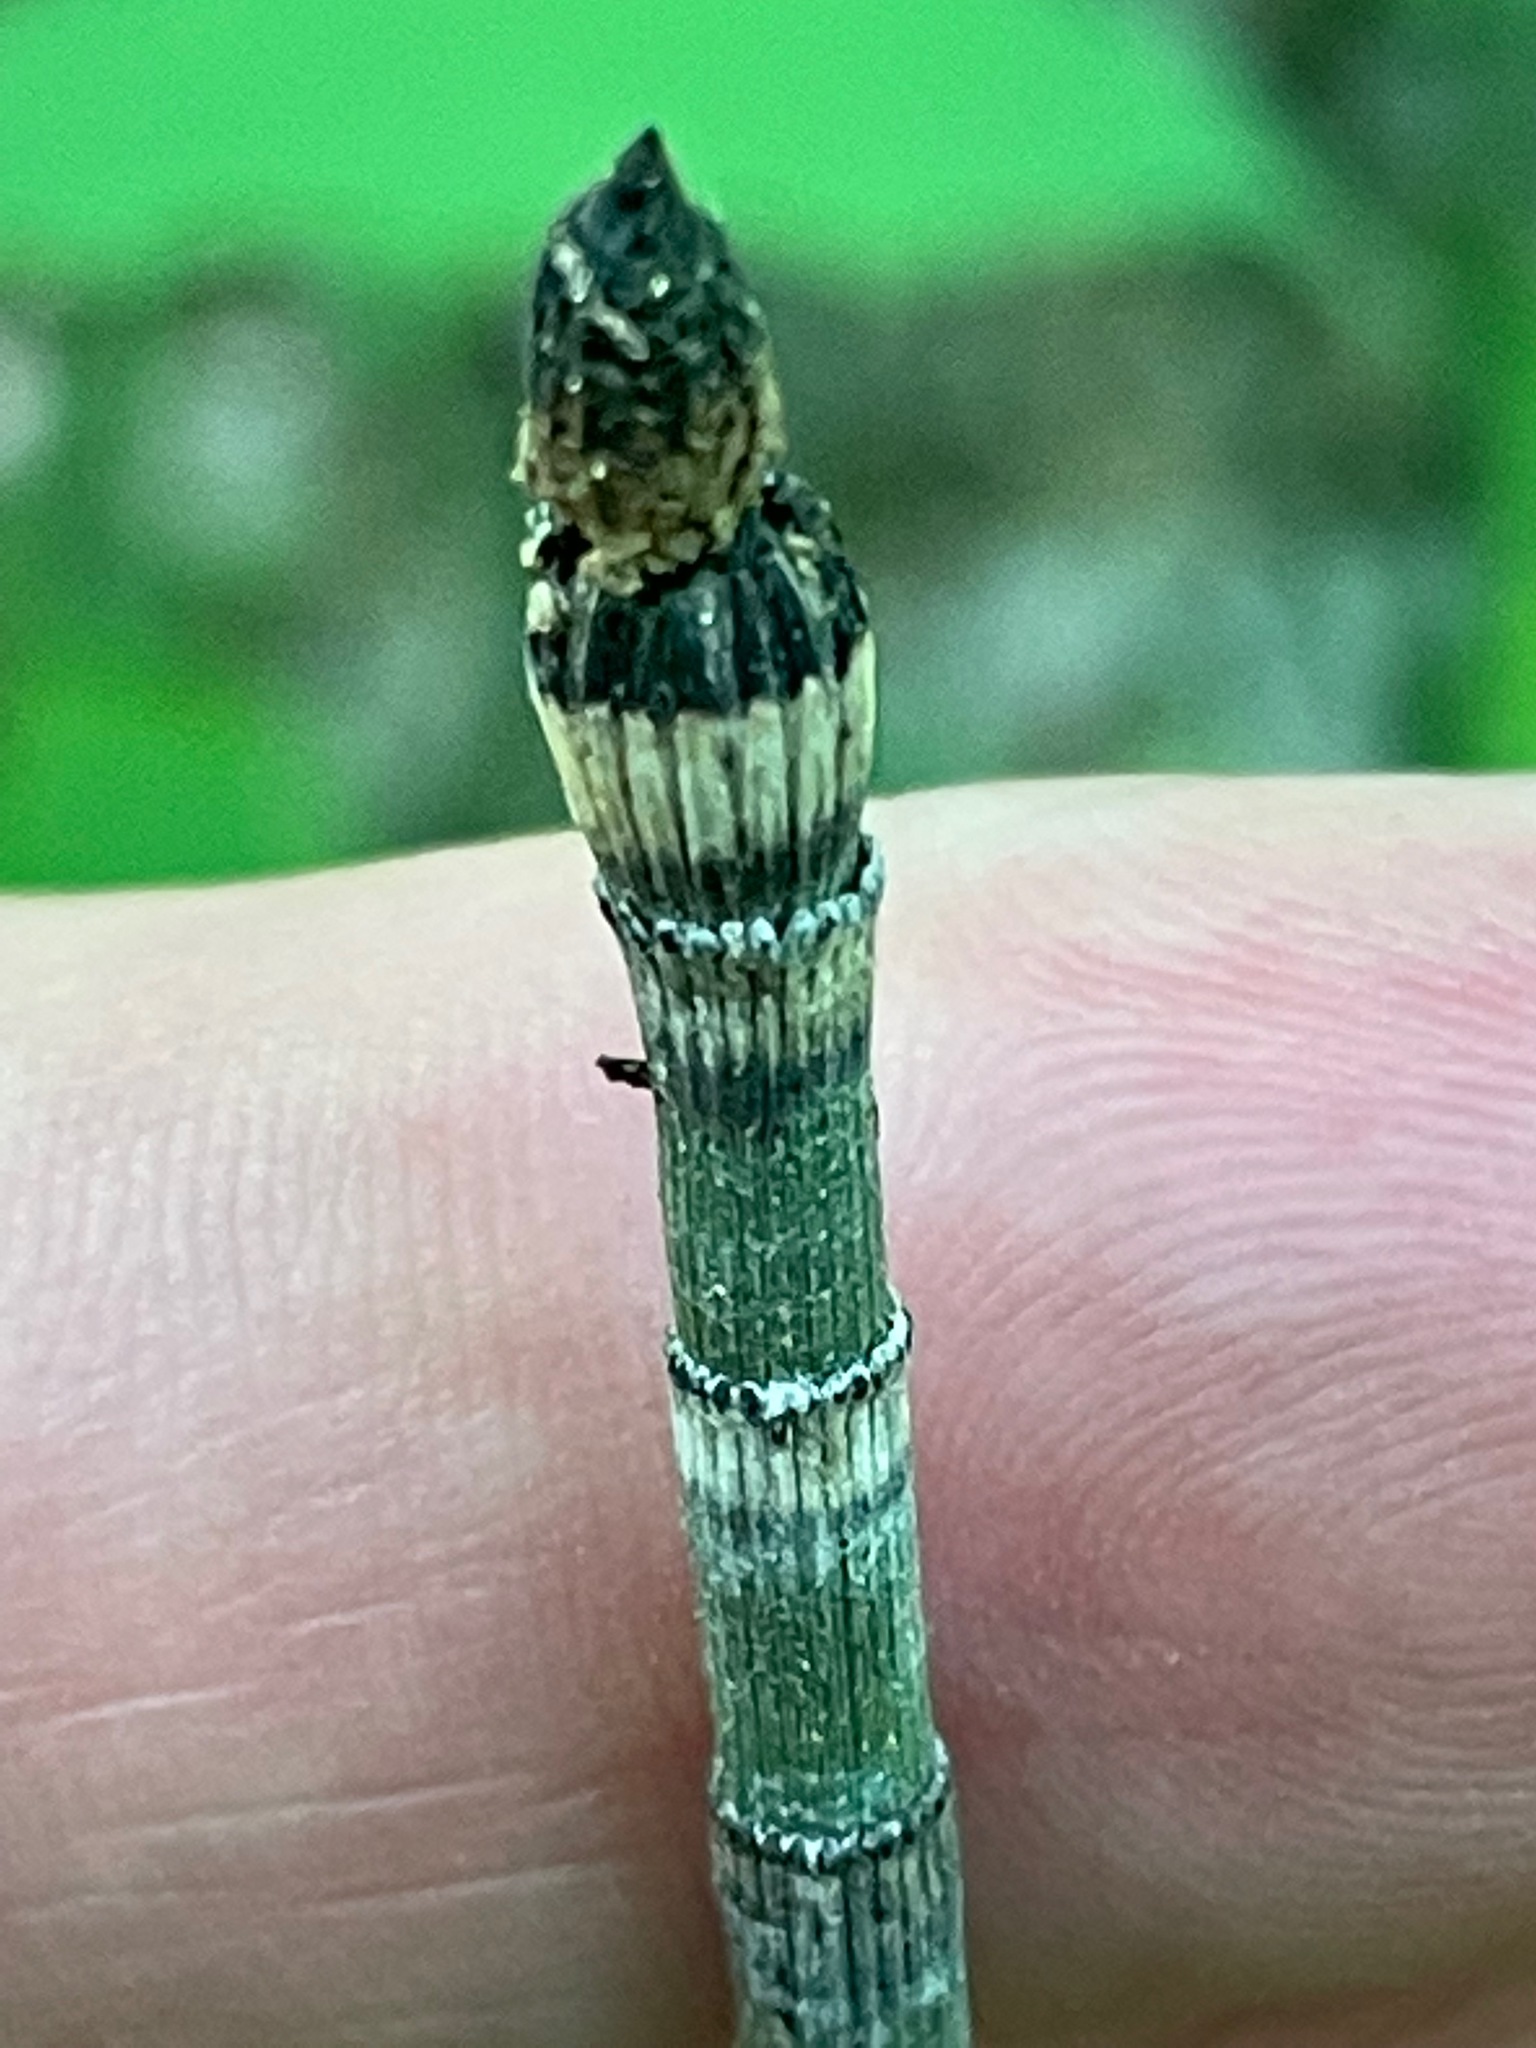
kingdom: Plantae
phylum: Tracheophyta
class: Polypodiopsida
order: Equisetales
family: Equisetaceae
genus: Equisetum
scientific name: Equisetum hyemale
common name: Rough horsetail
